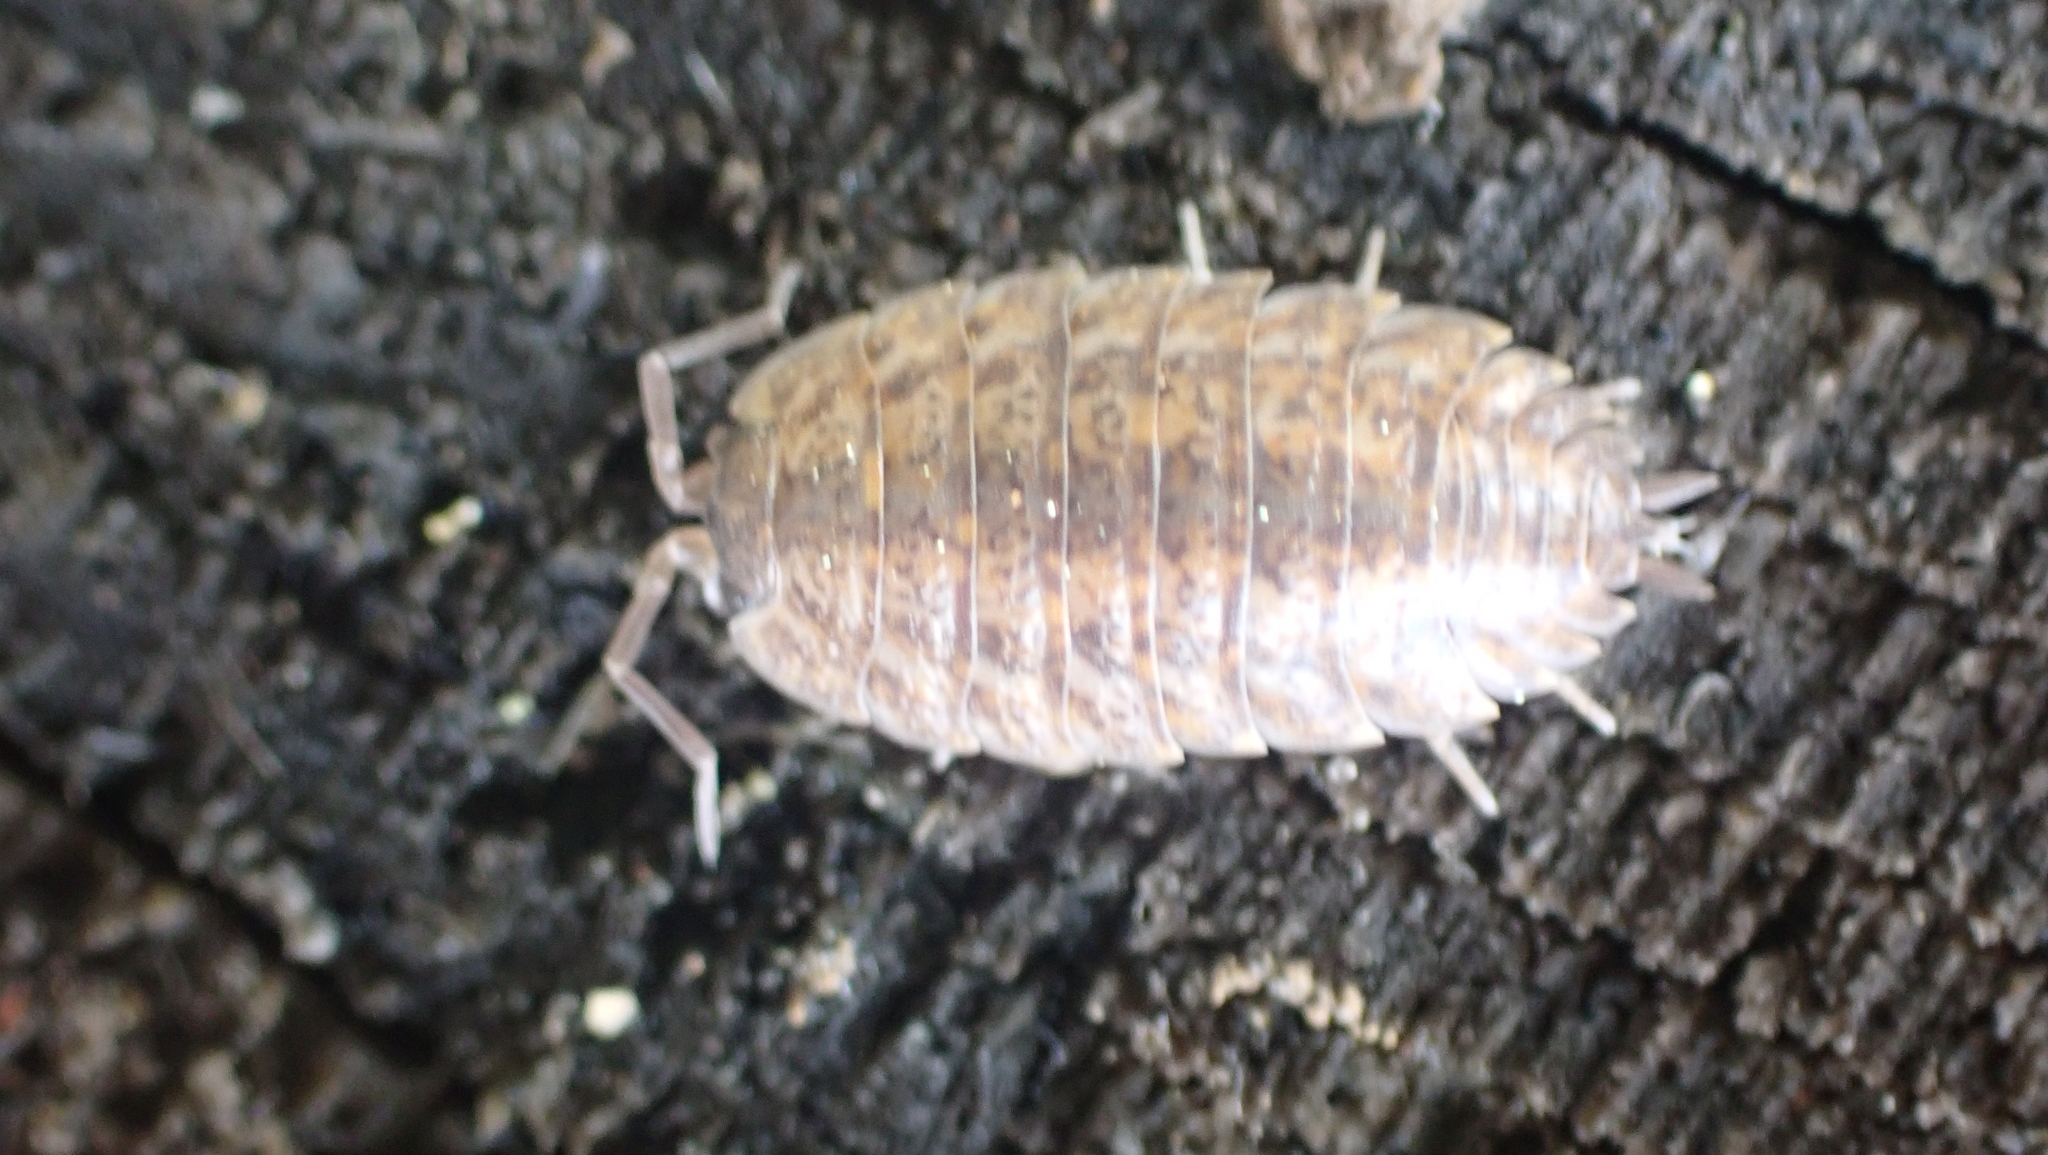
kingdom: Animalia
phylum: Arthropoda
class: Malacostraca
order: Isopoda
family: Trachelipodidae
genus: Trachelipus
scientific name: Trachelipus rathkii
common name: Isopod
